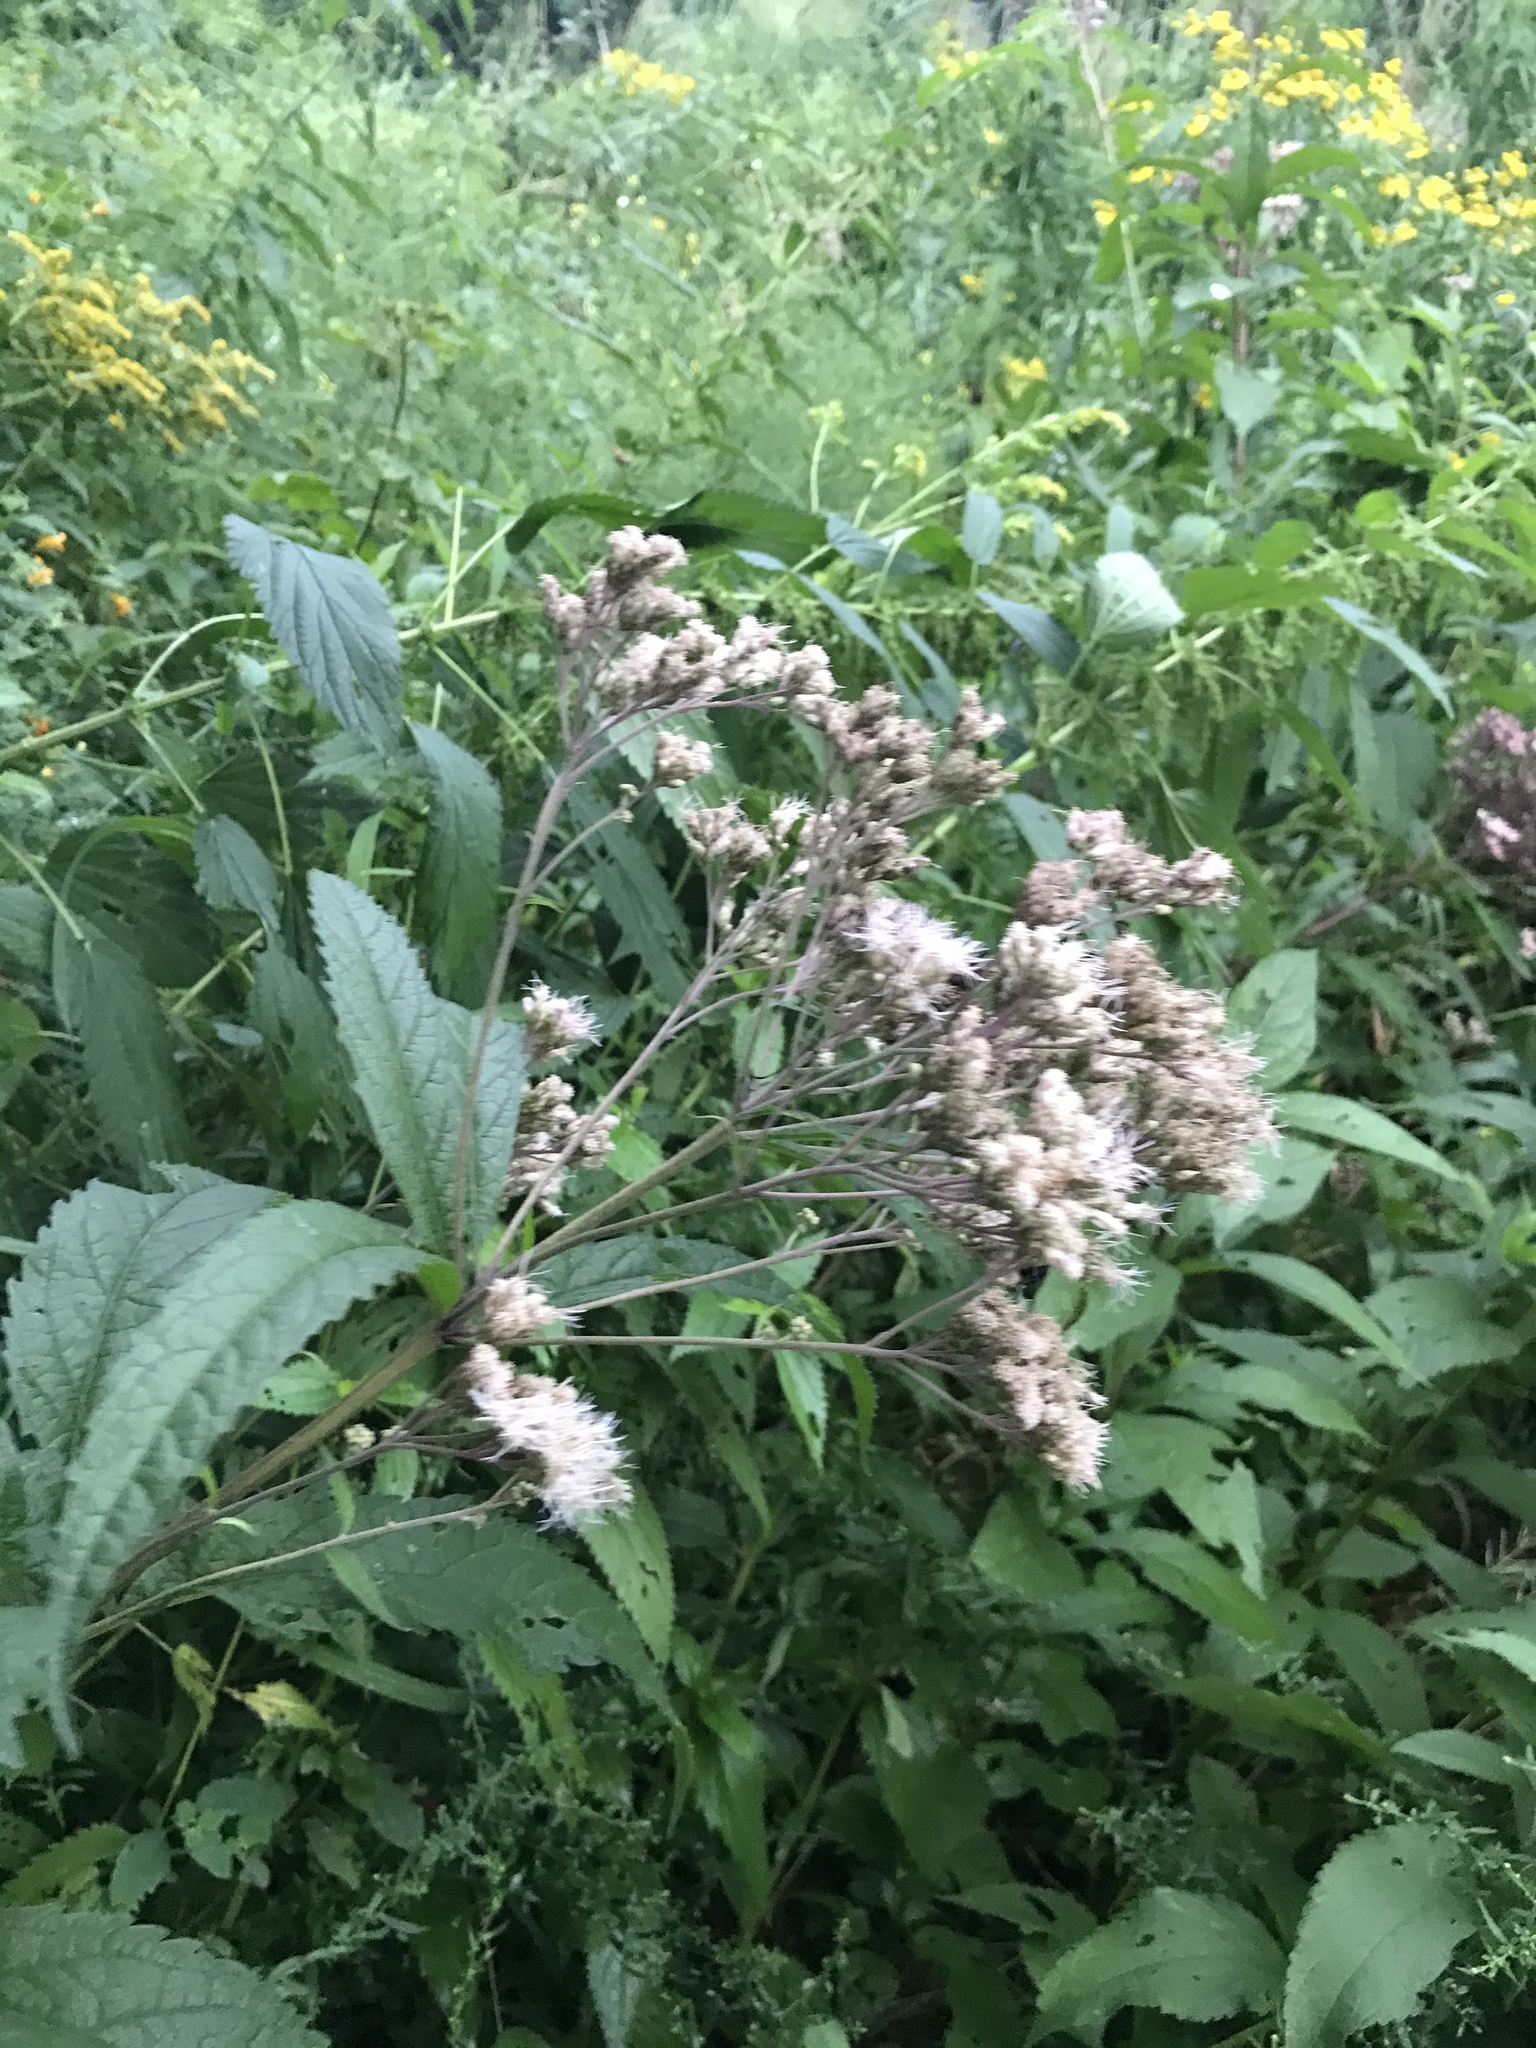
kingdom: Plantae
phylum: Tracheophyta
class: Magnoliopsida
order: Asterales
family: Asteraceae
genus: Eutrochium
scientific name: Eutrochium maculatum
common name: Spotted joe pye weed
